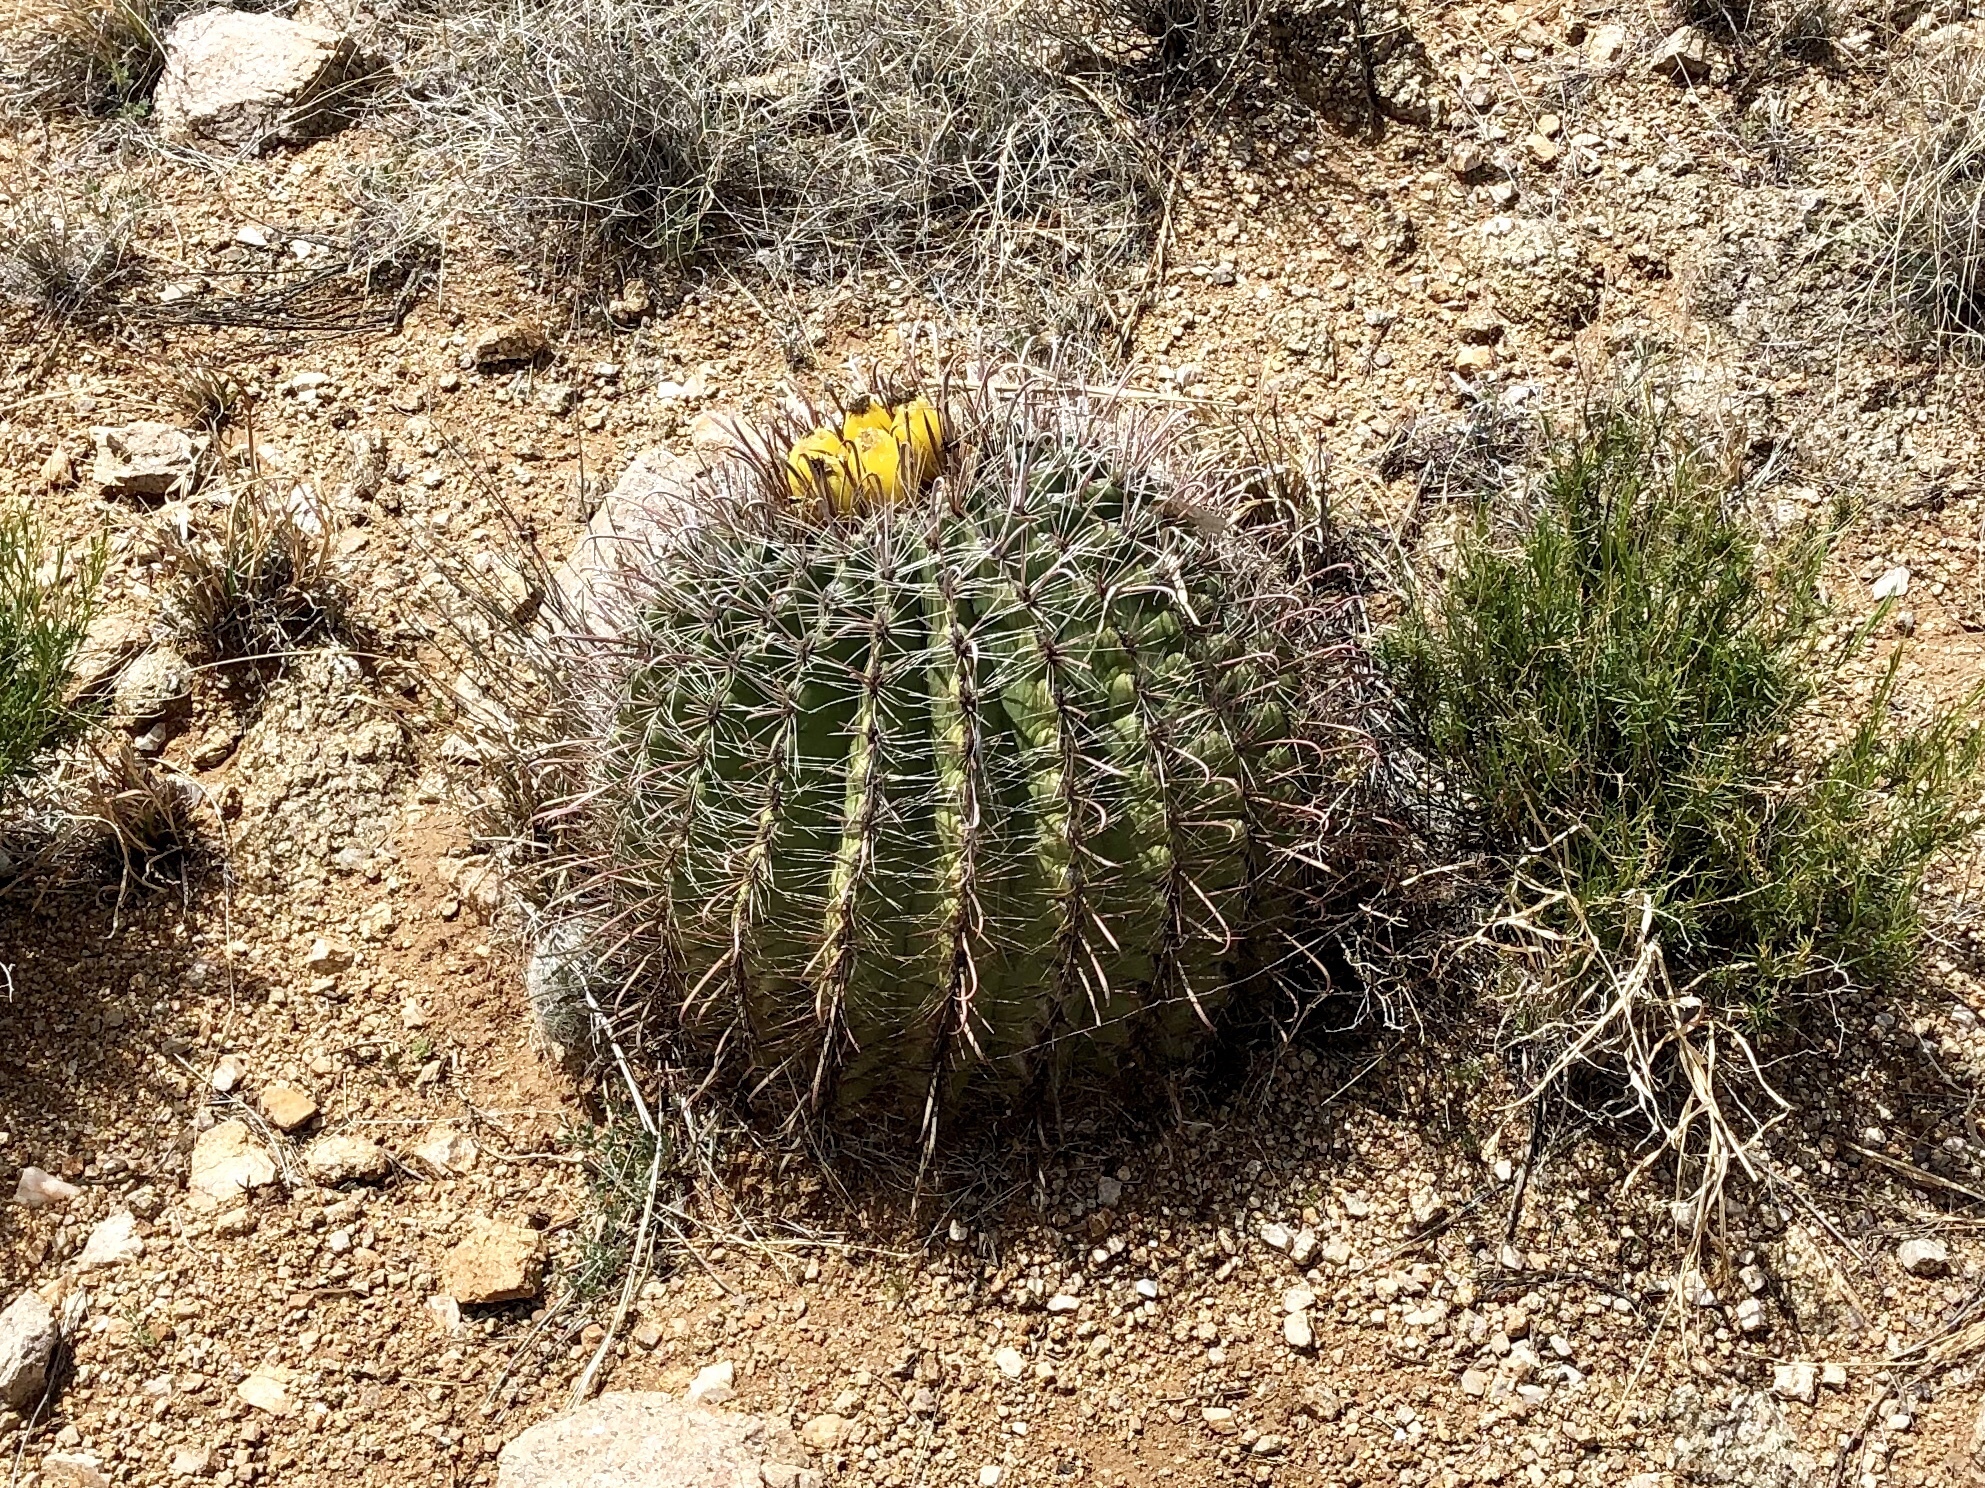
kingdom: Plantae
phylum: Tracheophyta
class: Magnoliopsida
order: Caryophyllales
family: Cactaceae
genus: Ferocactus
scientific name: Ferocactus wislizeni
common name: Candy barrel cactus
